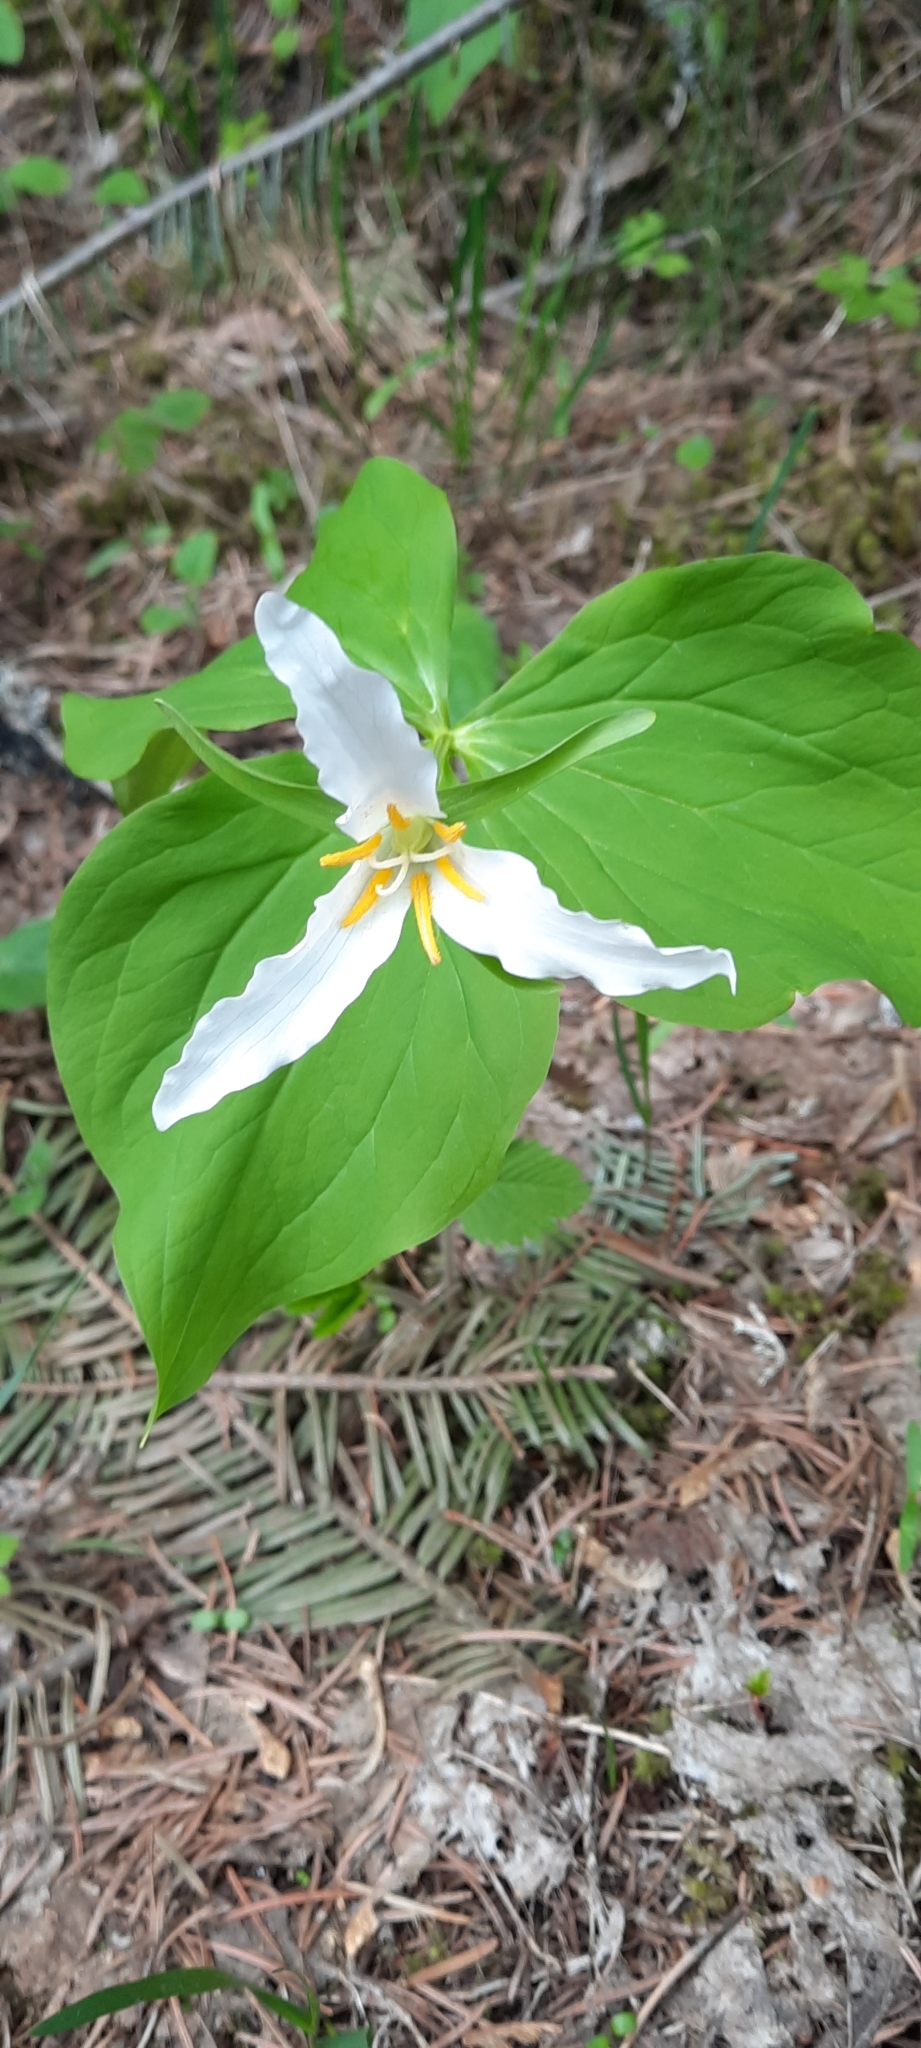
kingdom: Plantae
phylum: Tracheophyta
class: Liliopsida
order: Liliales
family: Melanthiaceae
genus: Trillium
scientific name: Trillium ovatum
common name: Pacific trillium
